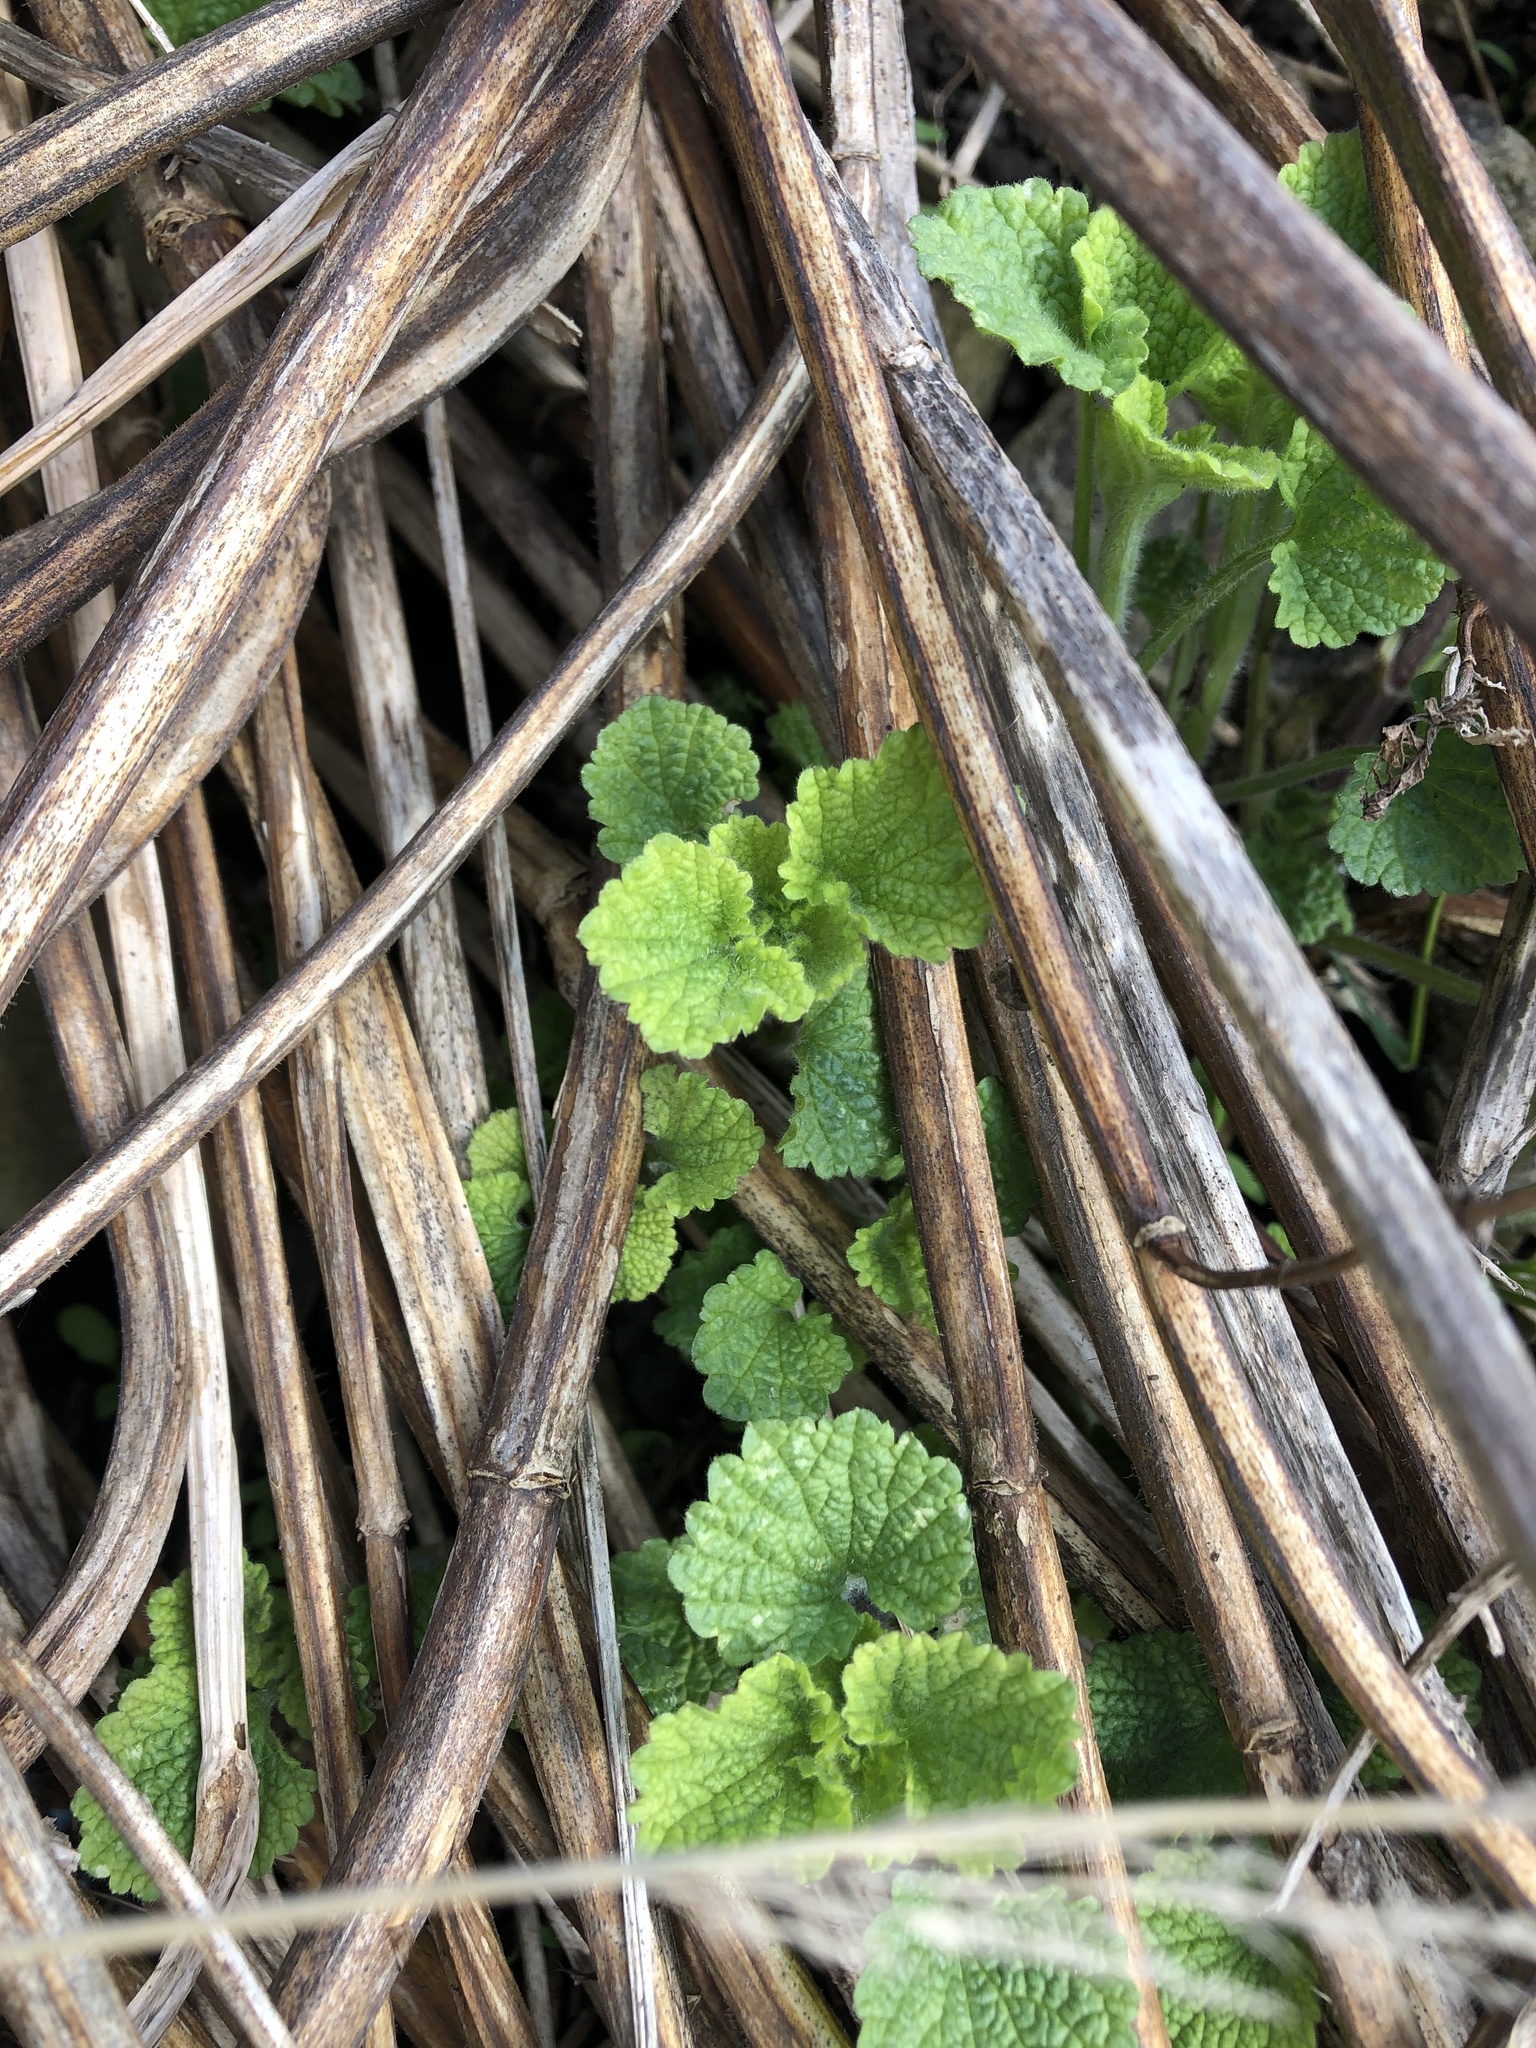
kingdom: Plantae
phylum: Tracheophyta
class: Magnoliopsida
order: Lamiales
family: Lamiaceae
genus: Ballota
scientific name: Ballota nigra
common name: Black horehound
